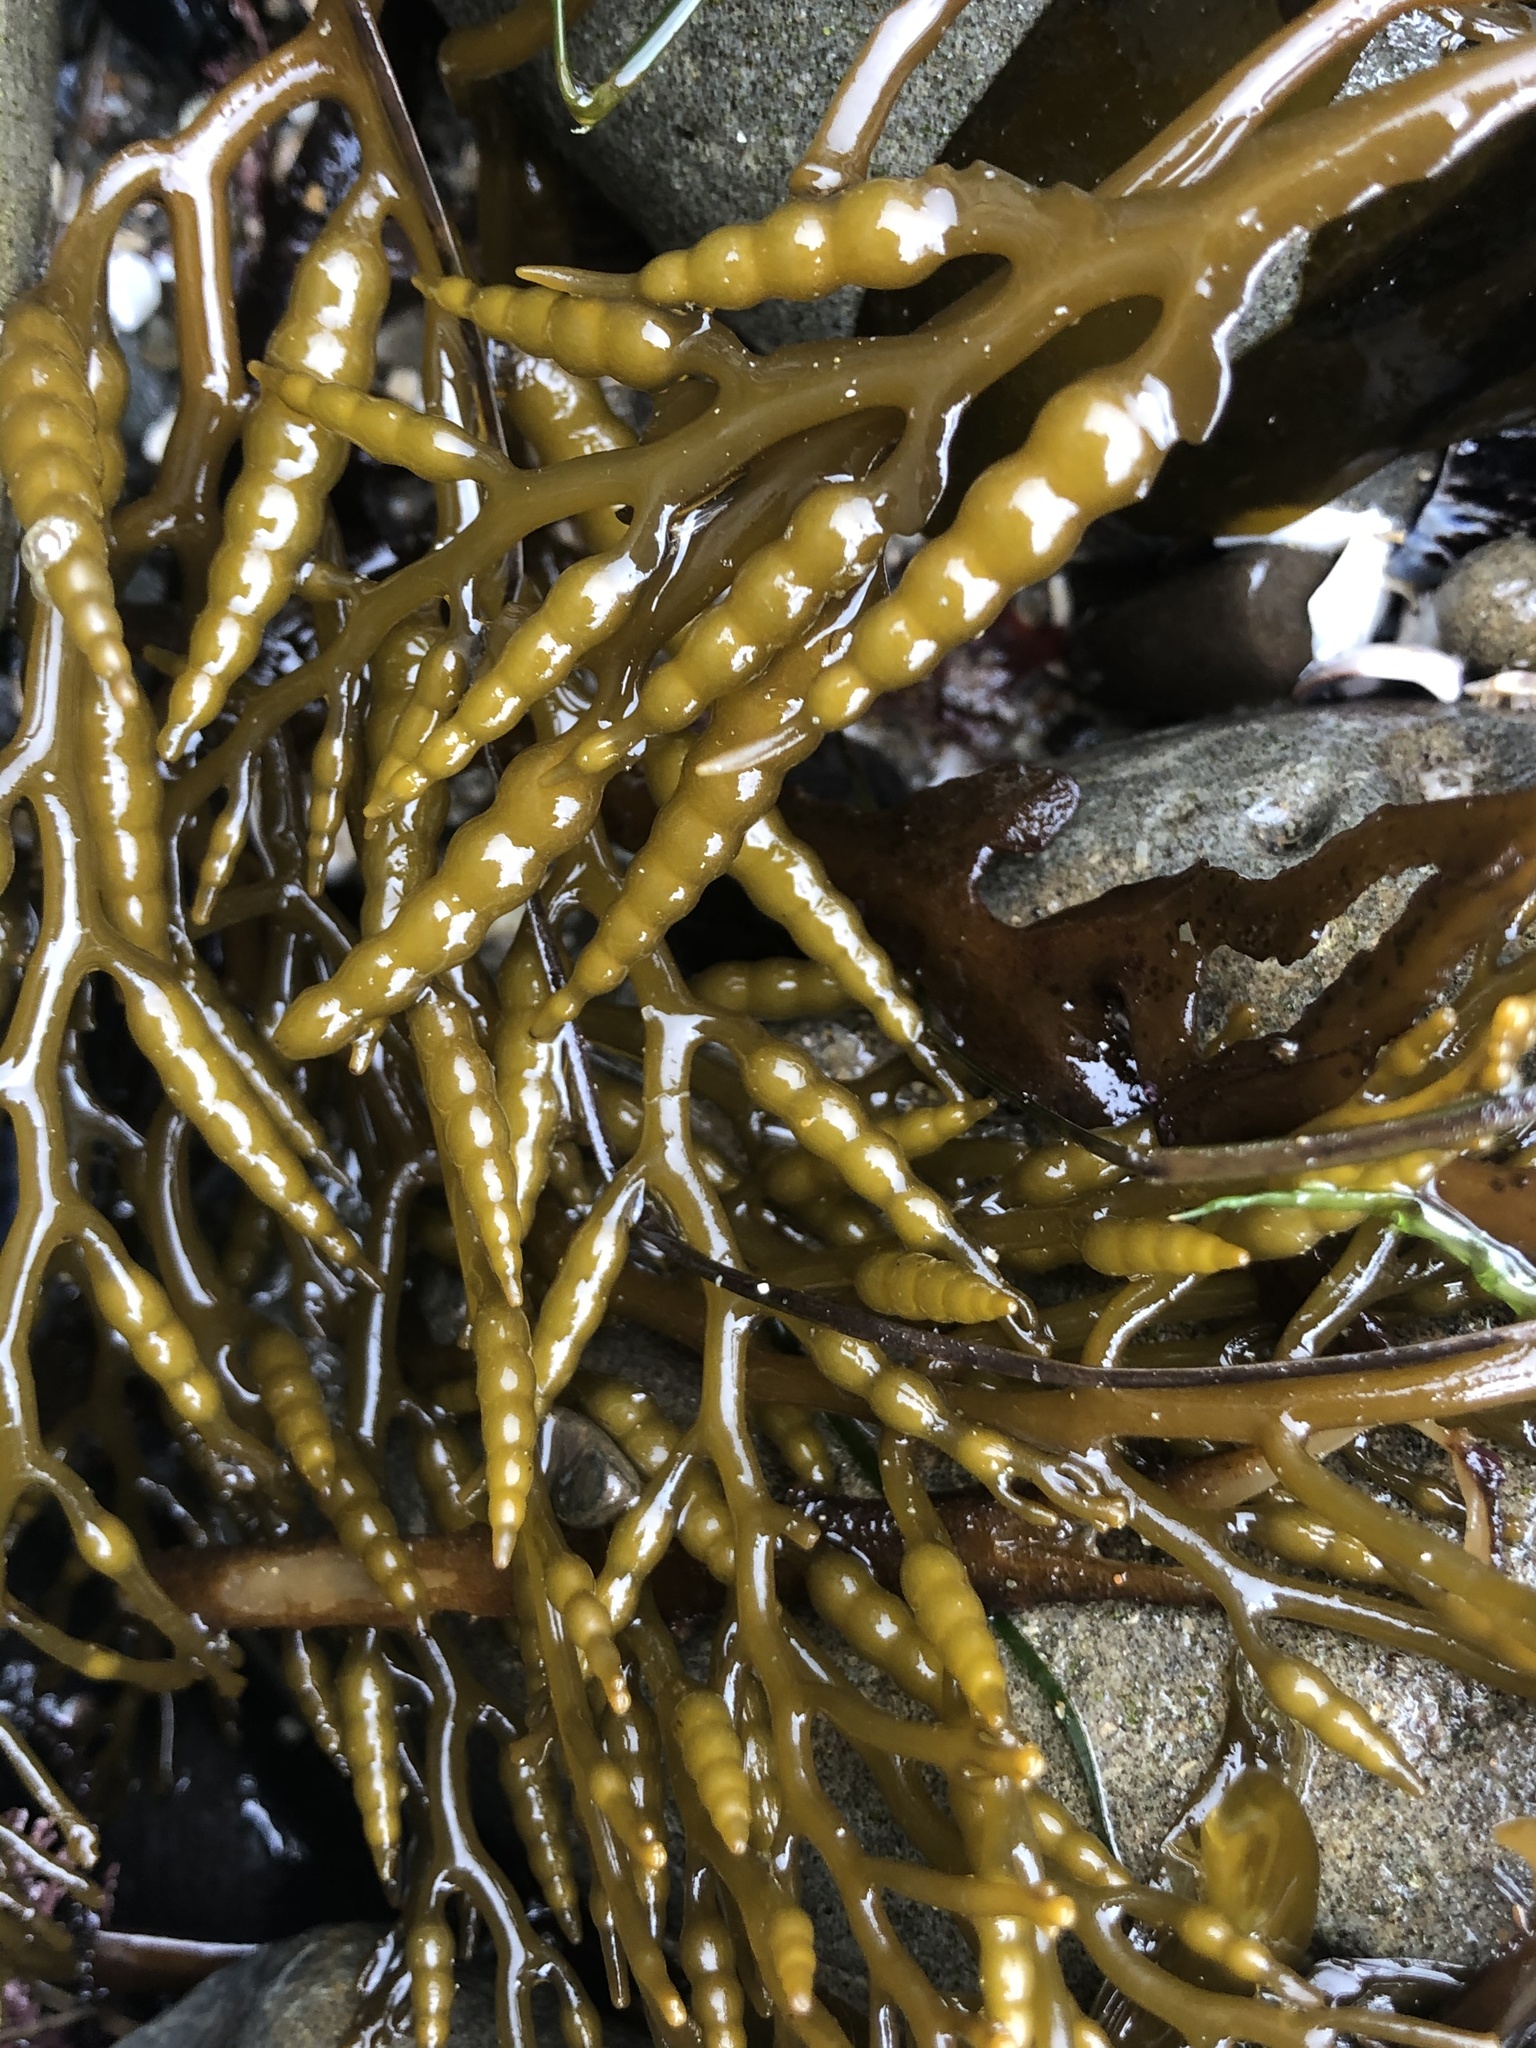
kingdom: Chromista
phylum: Ochrophyta
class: Phaeophyceae
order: Fucales
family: Sargassaceae
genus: Stephanocystis
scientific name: Stephanocystis
